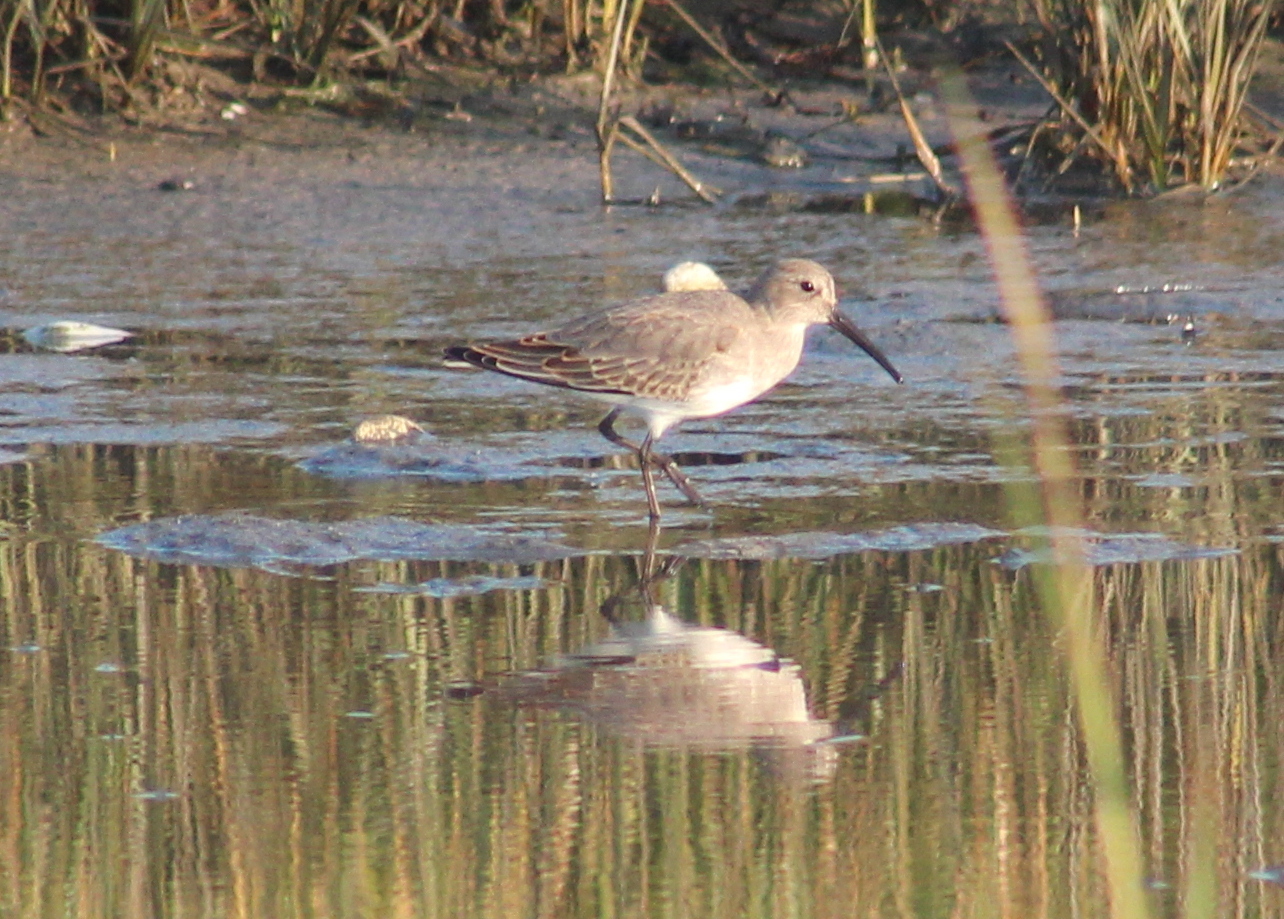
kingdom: Animalia
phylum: Chordata
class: Aves
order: Charadriiformes
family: Scolopacidae
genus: Calidris
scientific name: Calidris alpina
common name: Dunlin
